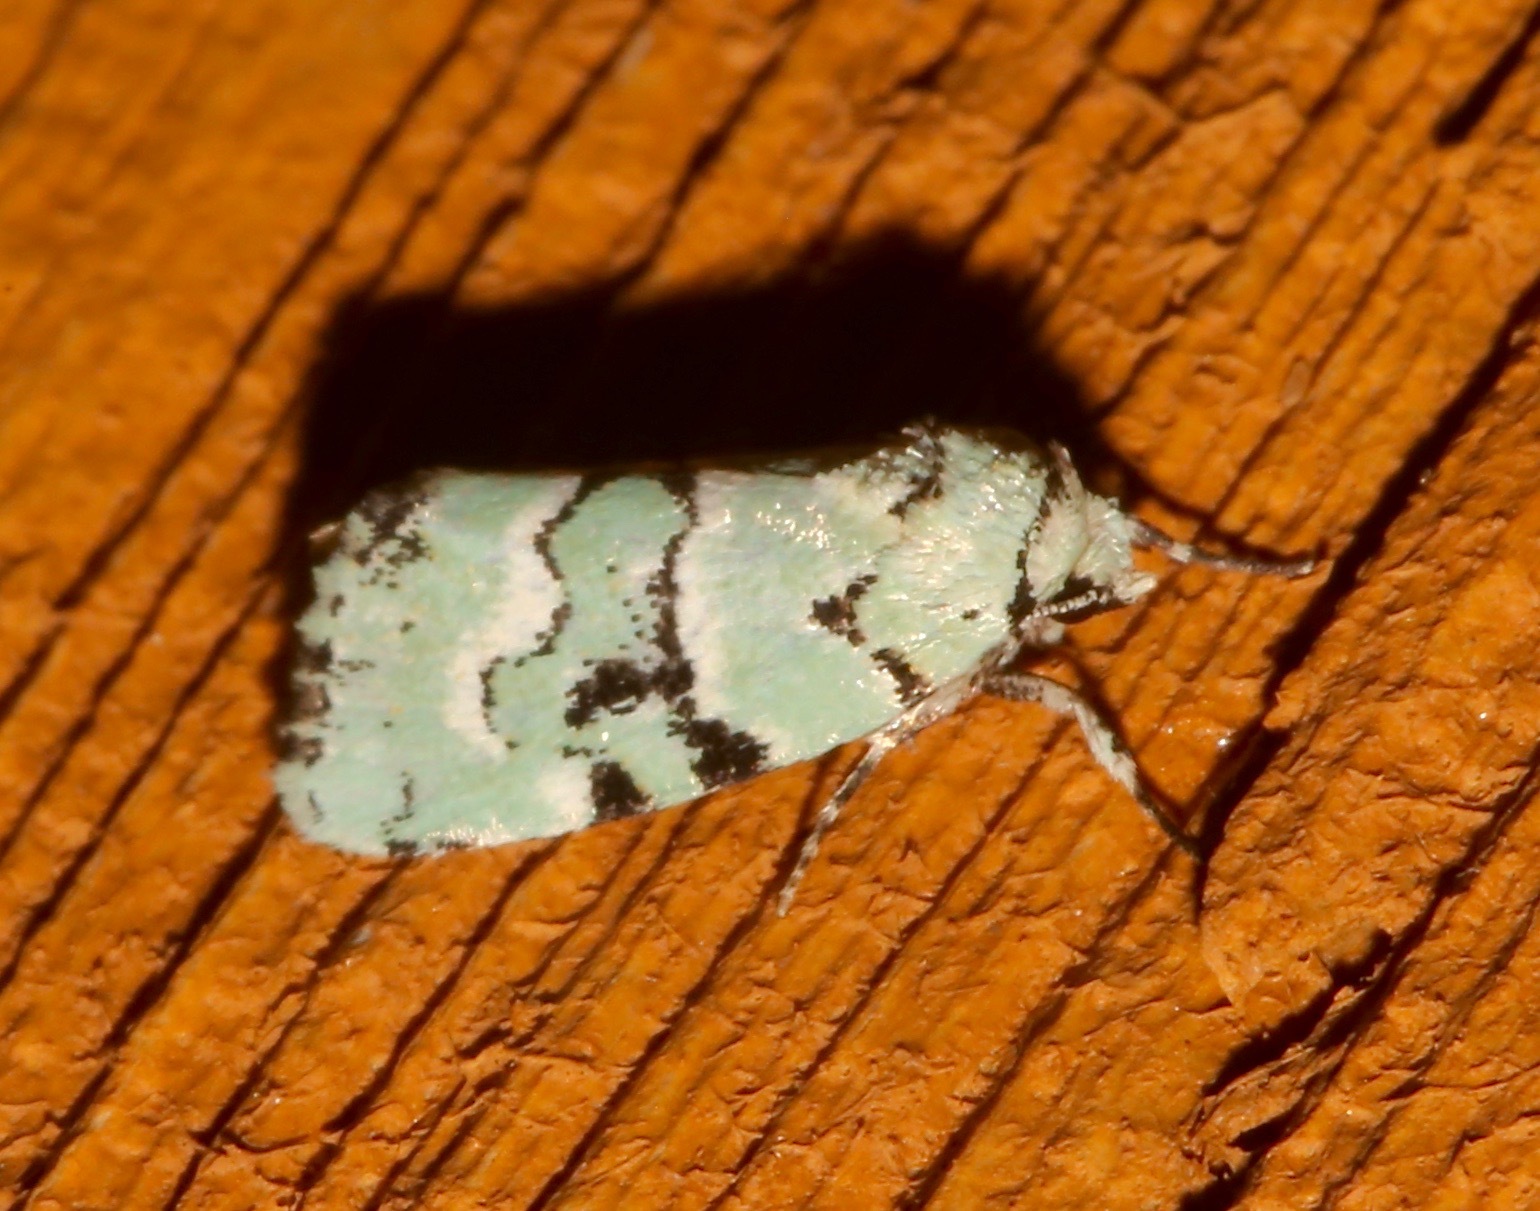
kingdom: Animalia
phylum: Arthropoda
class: Insecta
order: Lepidoptera
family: Noctuidae
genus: Elaphria
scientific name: Elaphria cyanympha
